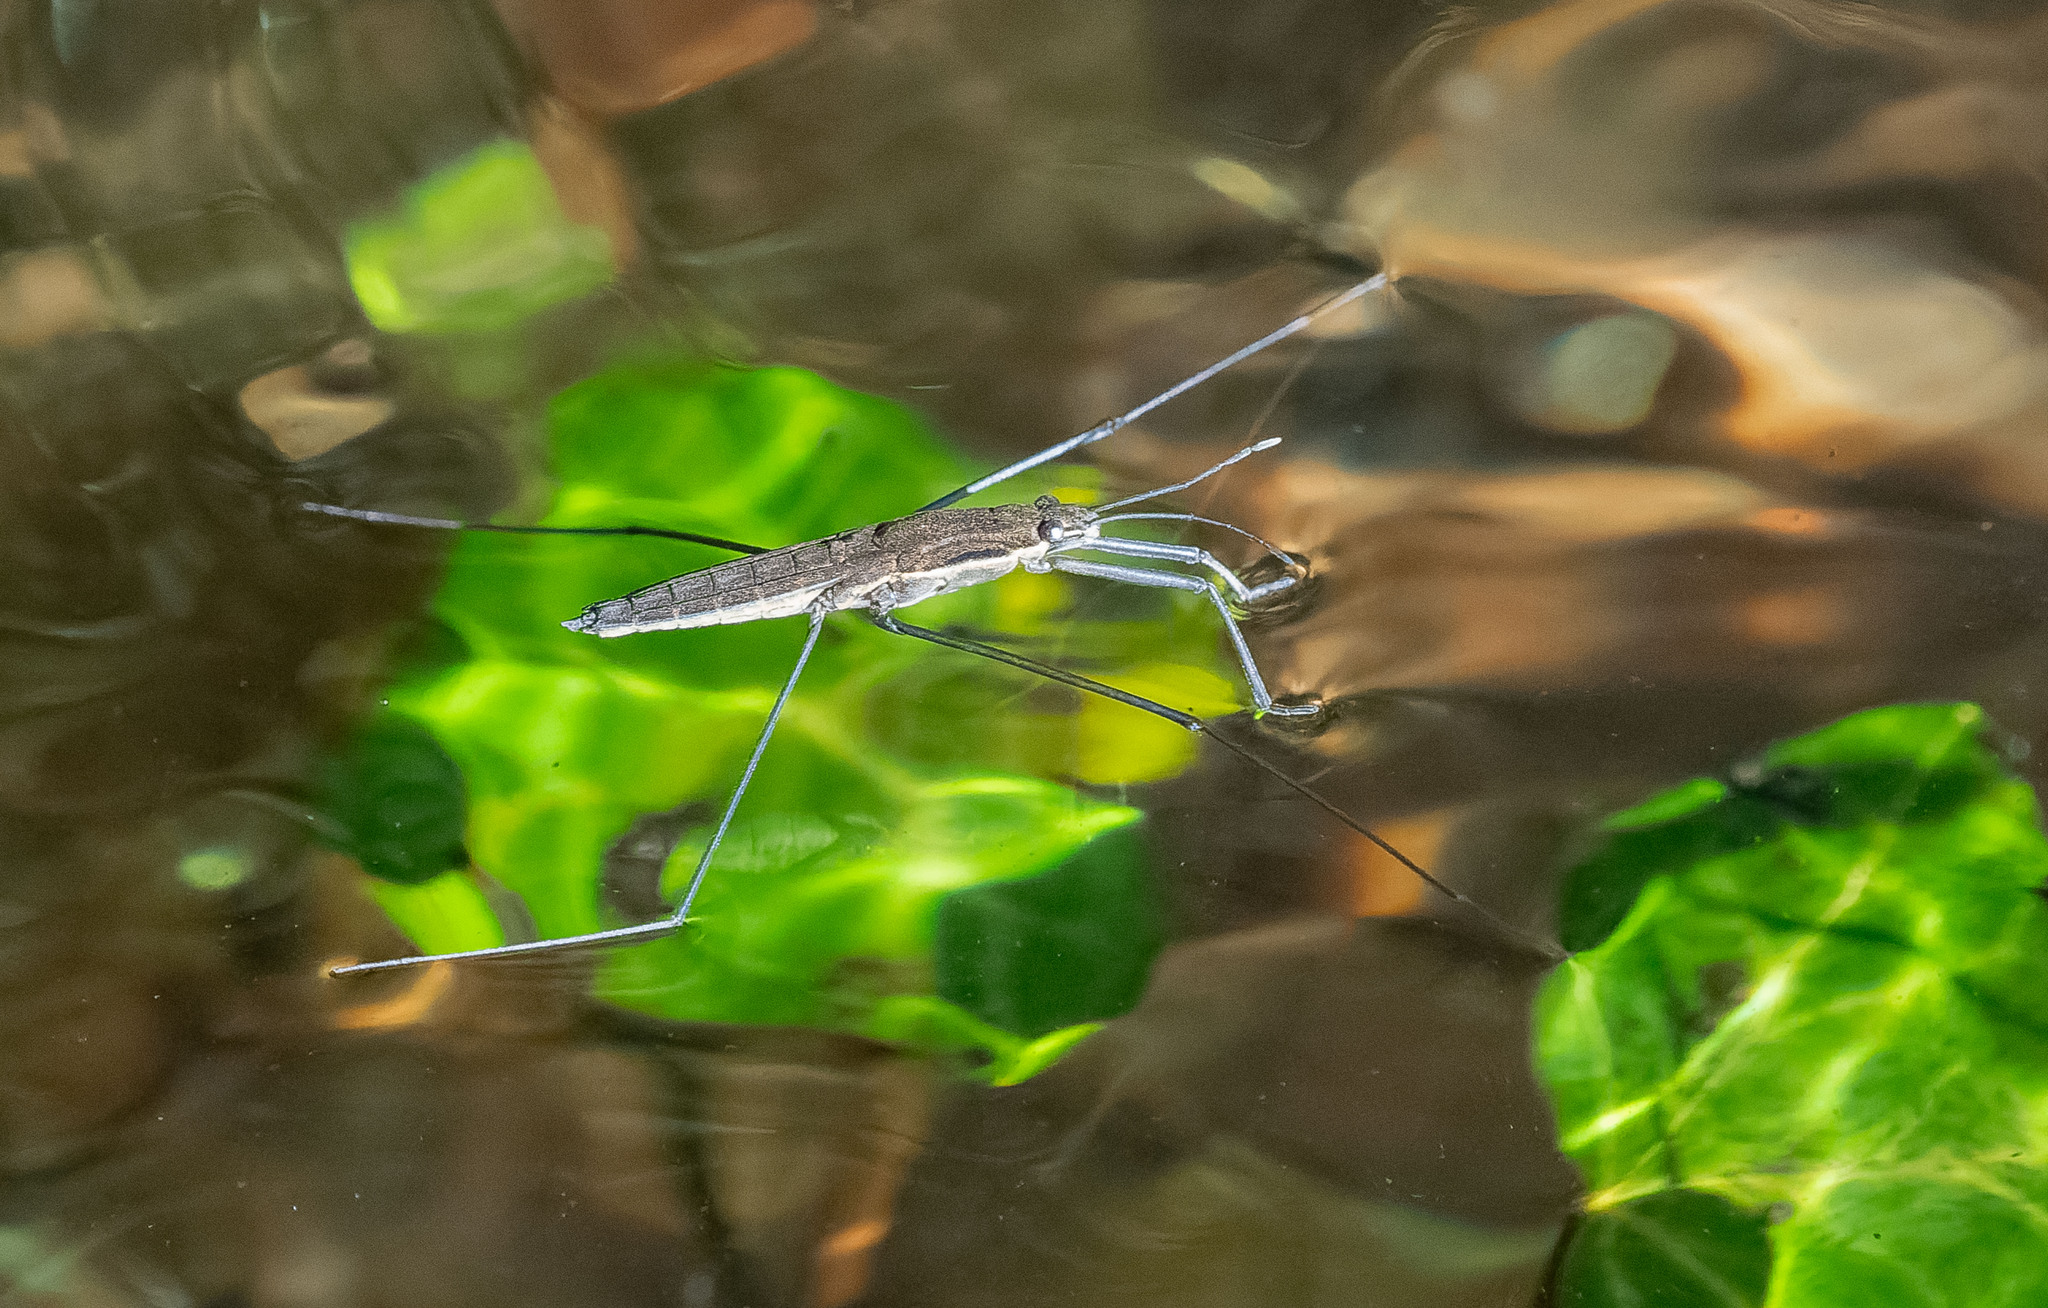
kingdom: Animalia
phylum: Arthropoda
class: Insecta
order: Hemiptera
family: Gerridae
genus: Aquarius
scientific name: Aquarius najas
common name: River skater
